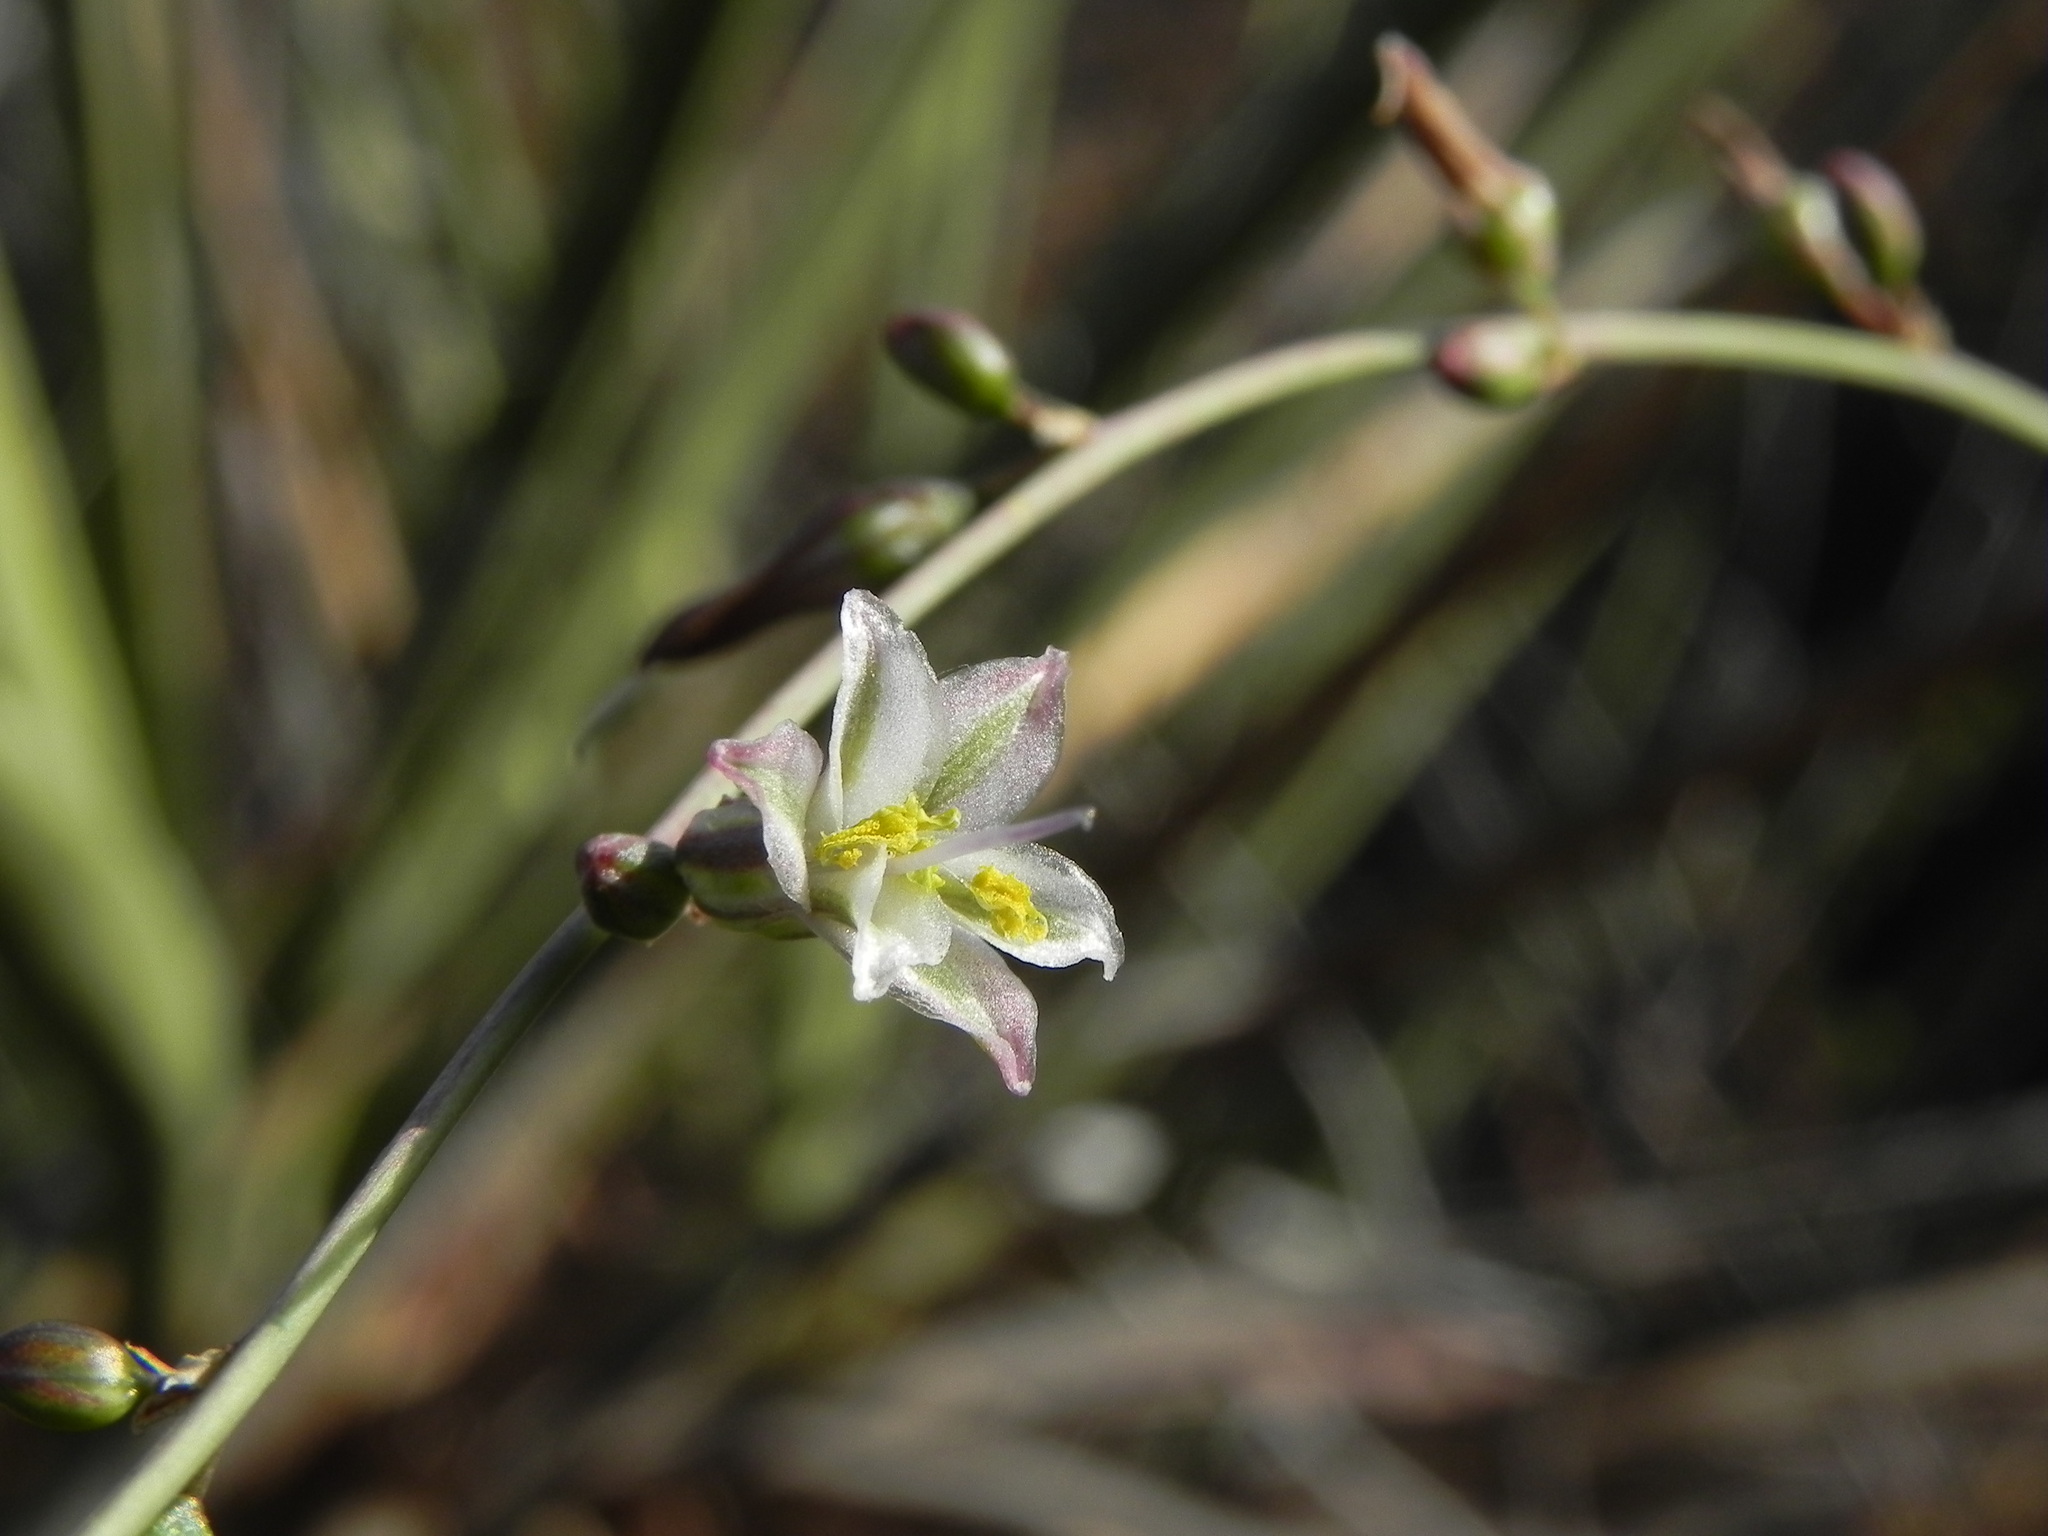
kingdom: Plantae
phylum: Tracheophyta
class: Liliopsida
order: Asparagales
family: Asparagaceae
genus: Hooveria
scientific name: Hooveria parviflora
